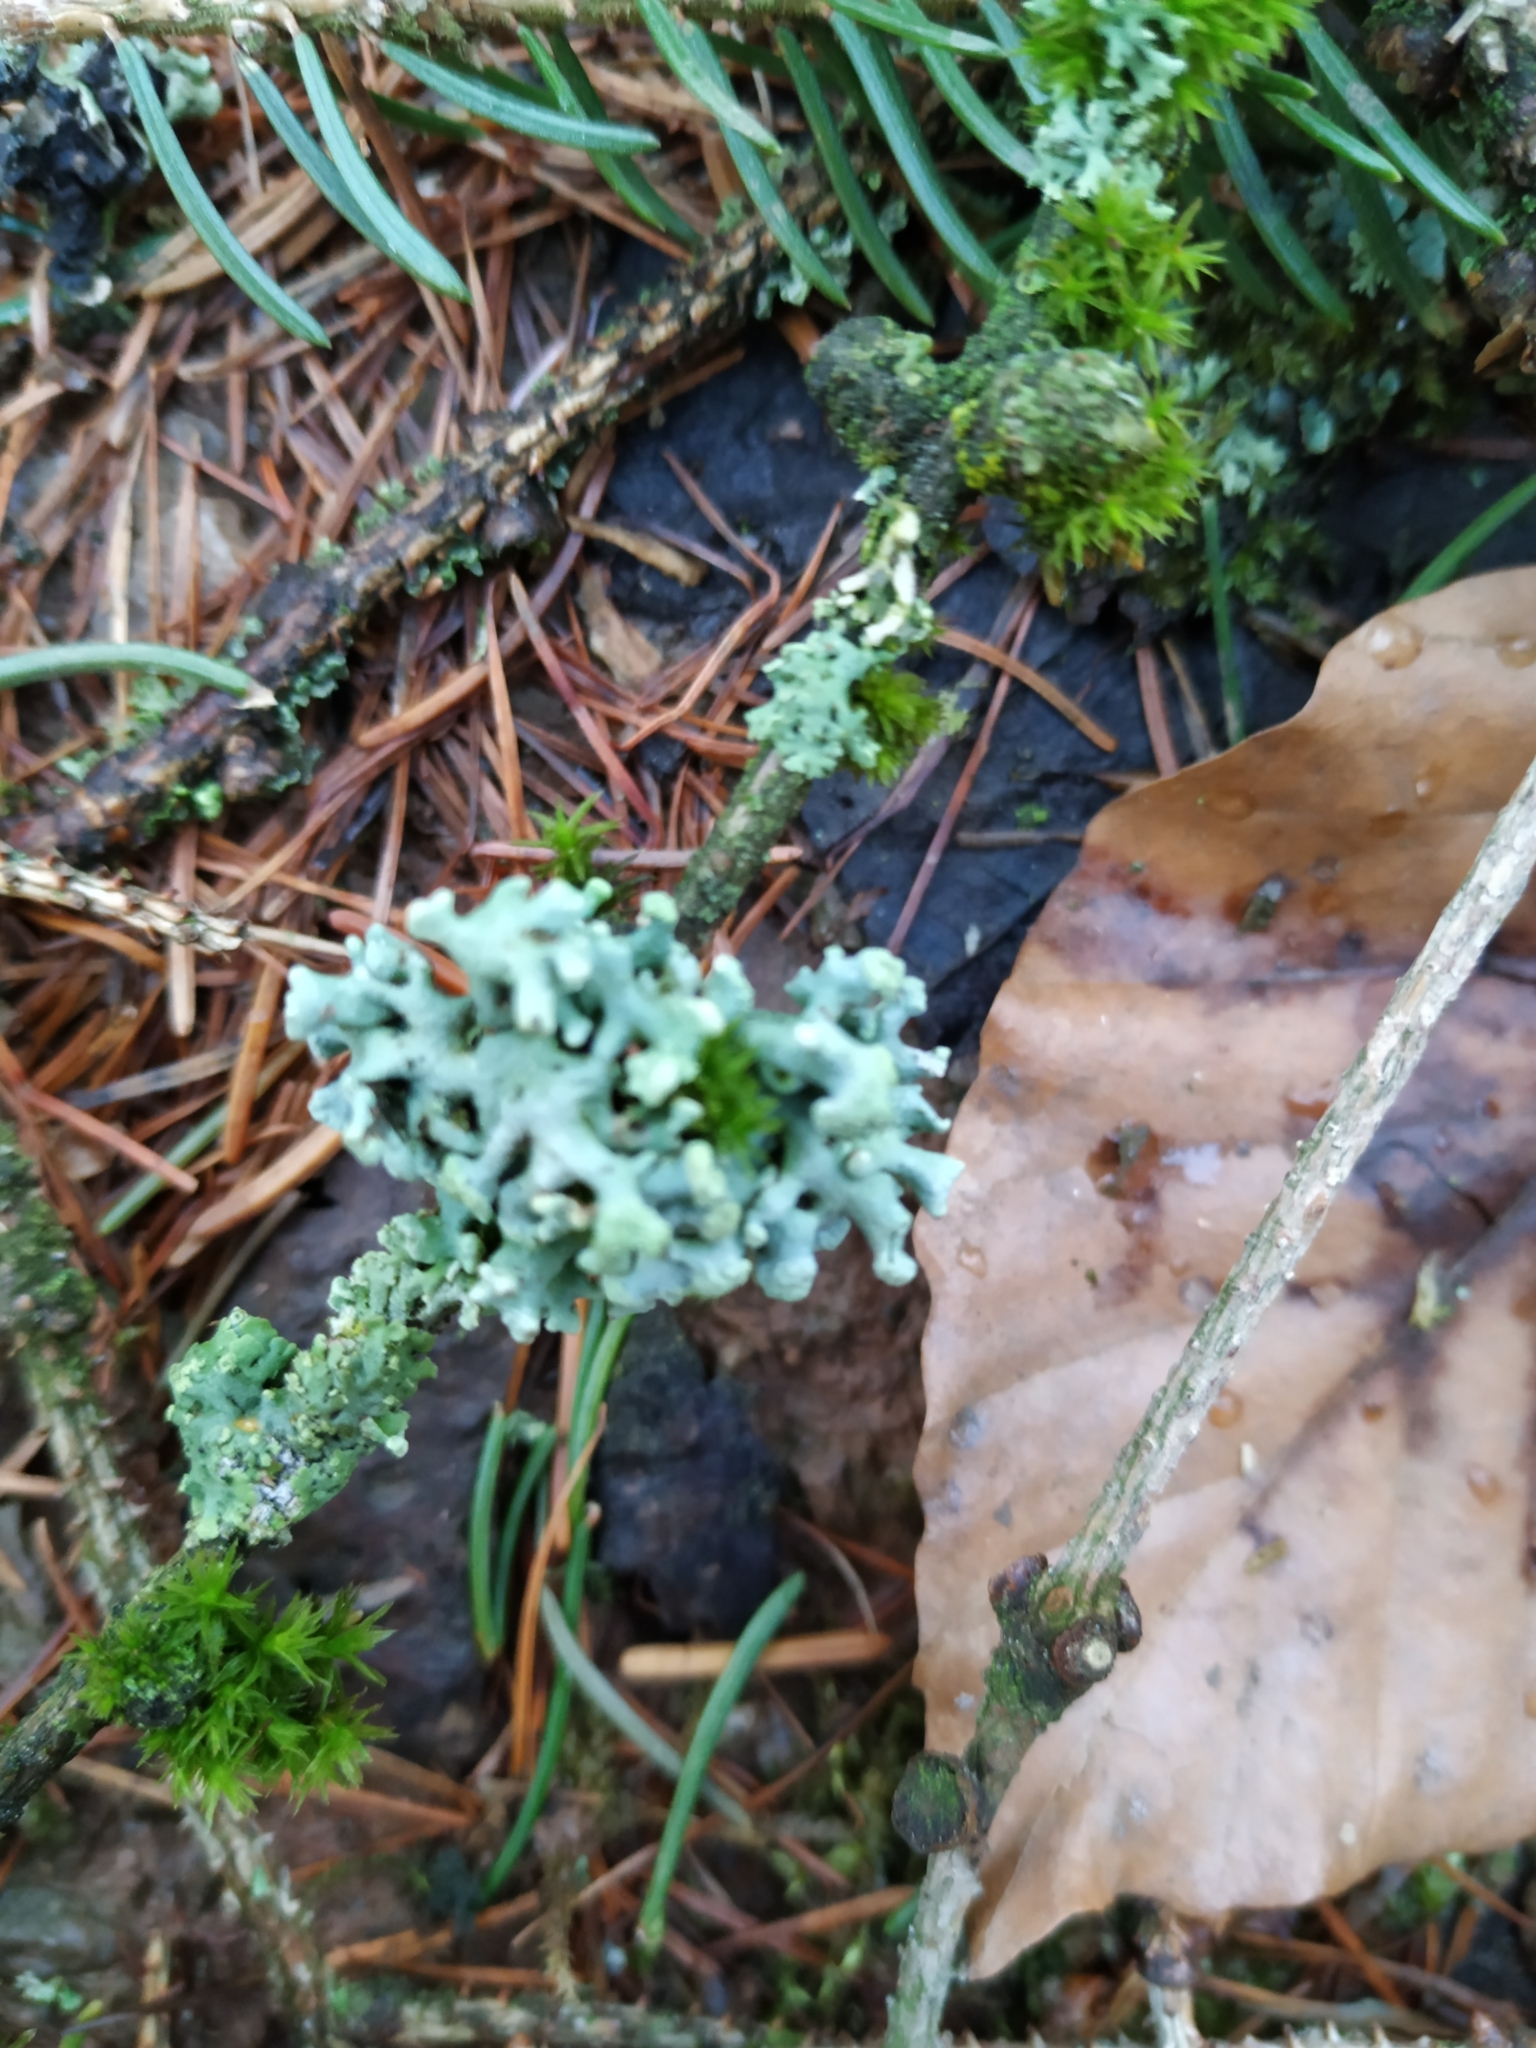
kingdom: Fungi
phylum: Ascomycota
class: Lecanoromycetes
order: Lecanorales
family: Parmeliaceae
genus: Hypogymnia
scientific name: Hypogymnia tubulosa
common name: Powder-headed tube lichen
